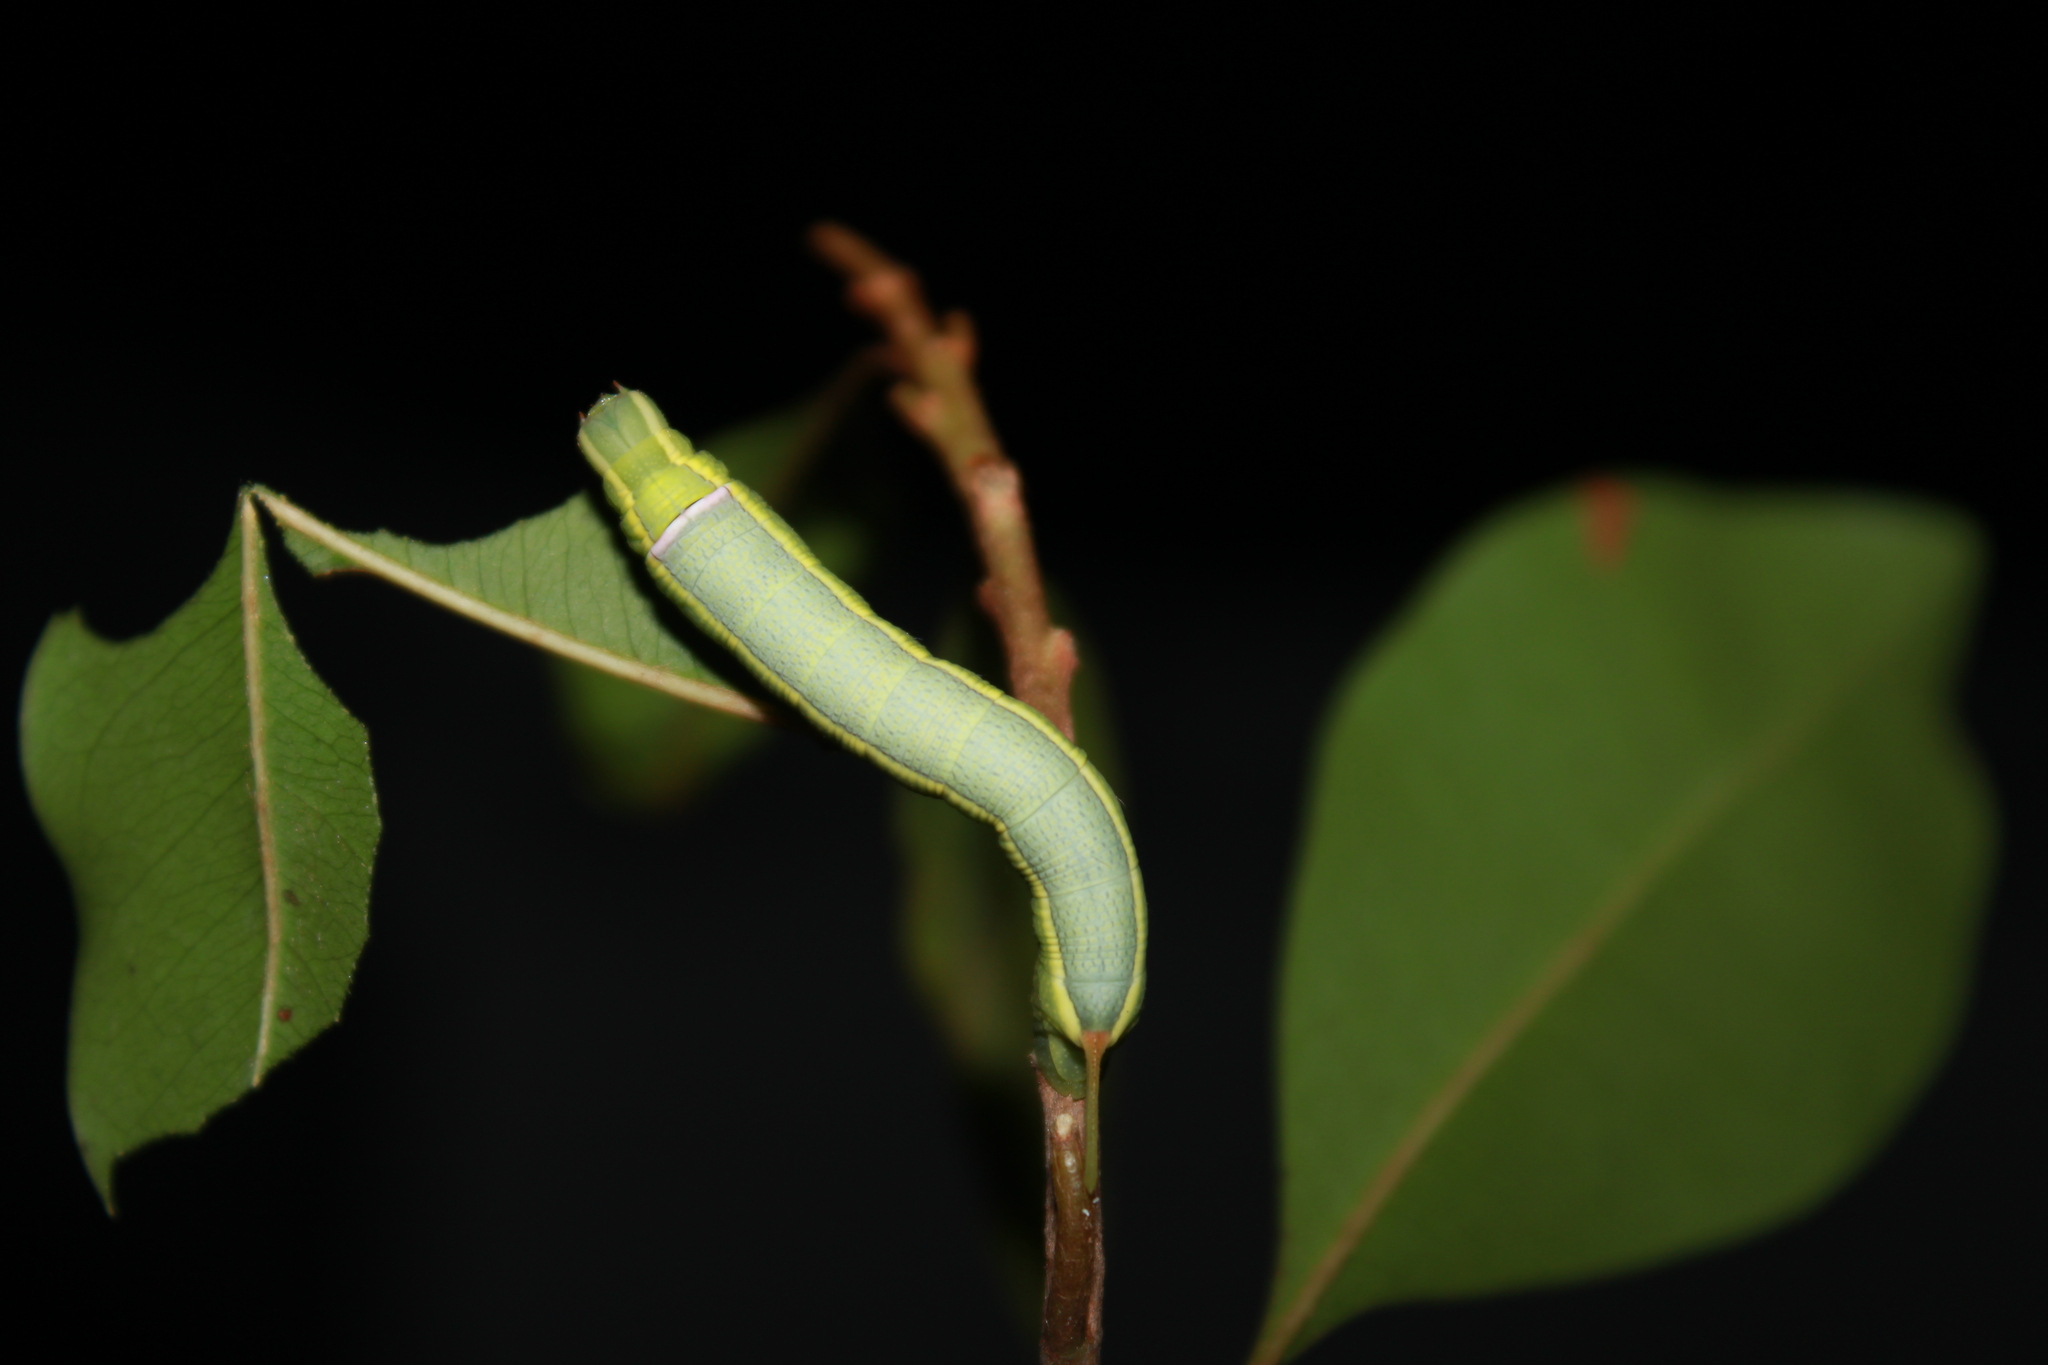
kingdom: Animalia
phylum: Arthropoda
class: Insecta
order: Lepidoptera
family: Sphingidae
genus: Erinnyis
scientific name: Erinnyis ello
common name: Ello sphinx
